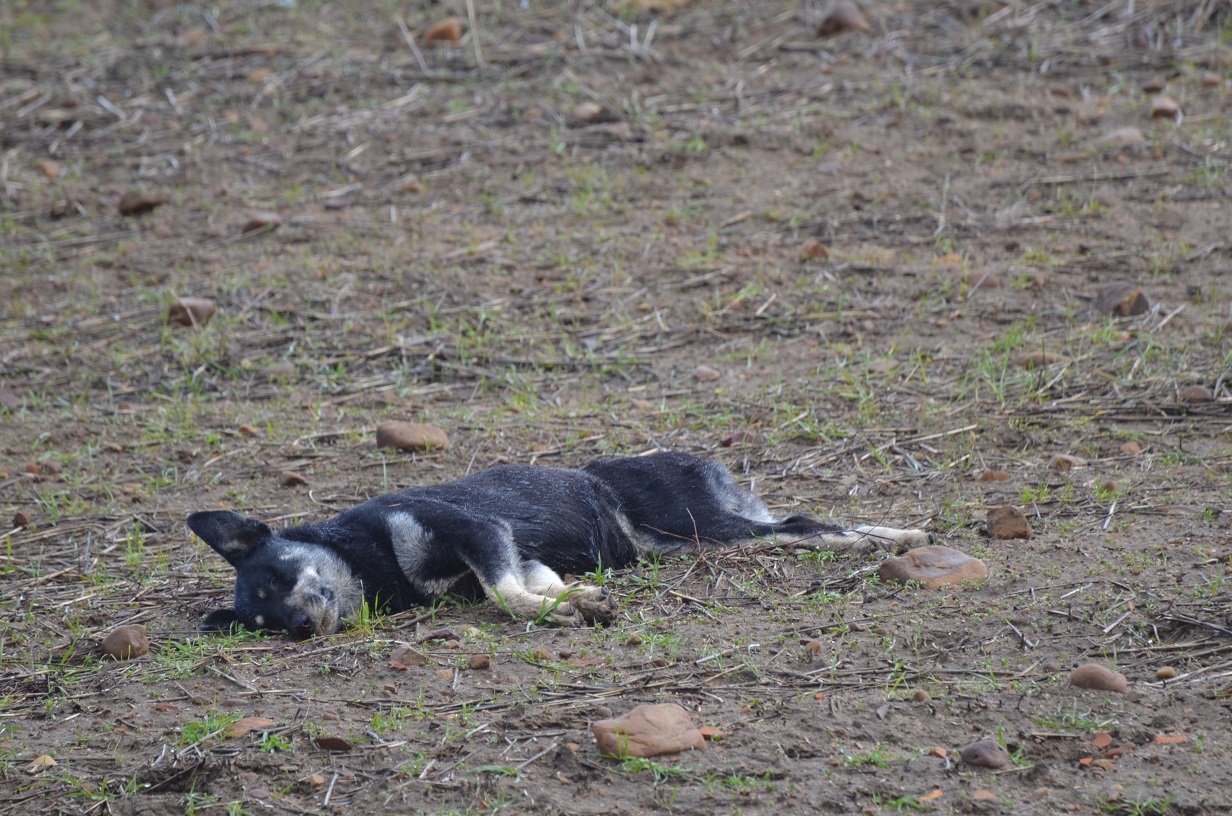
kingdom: Animalia
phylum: Chordata
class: Mammalia
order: Carnivora
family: Canidae
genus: Canis
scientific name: Canis lupus
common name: Gray wolf
